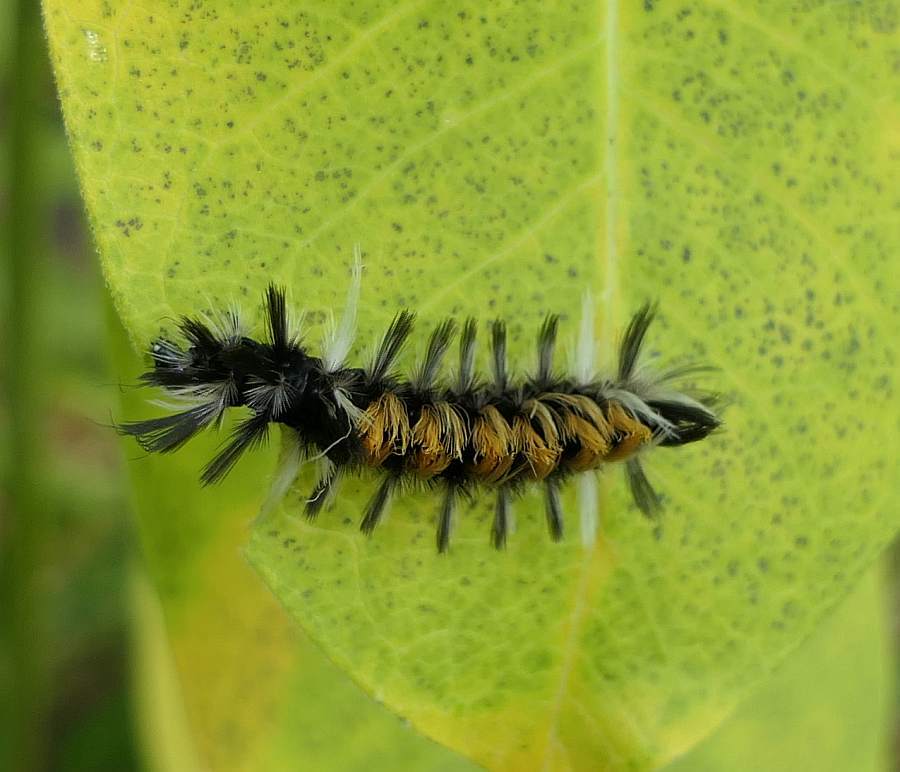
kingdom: Animalia
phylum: Arthropoda
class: Insecta
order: Lepidoptera
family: Erebidae
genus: Euchaetes
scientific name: Euchaetes egle
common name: Milkweed tussock moth
